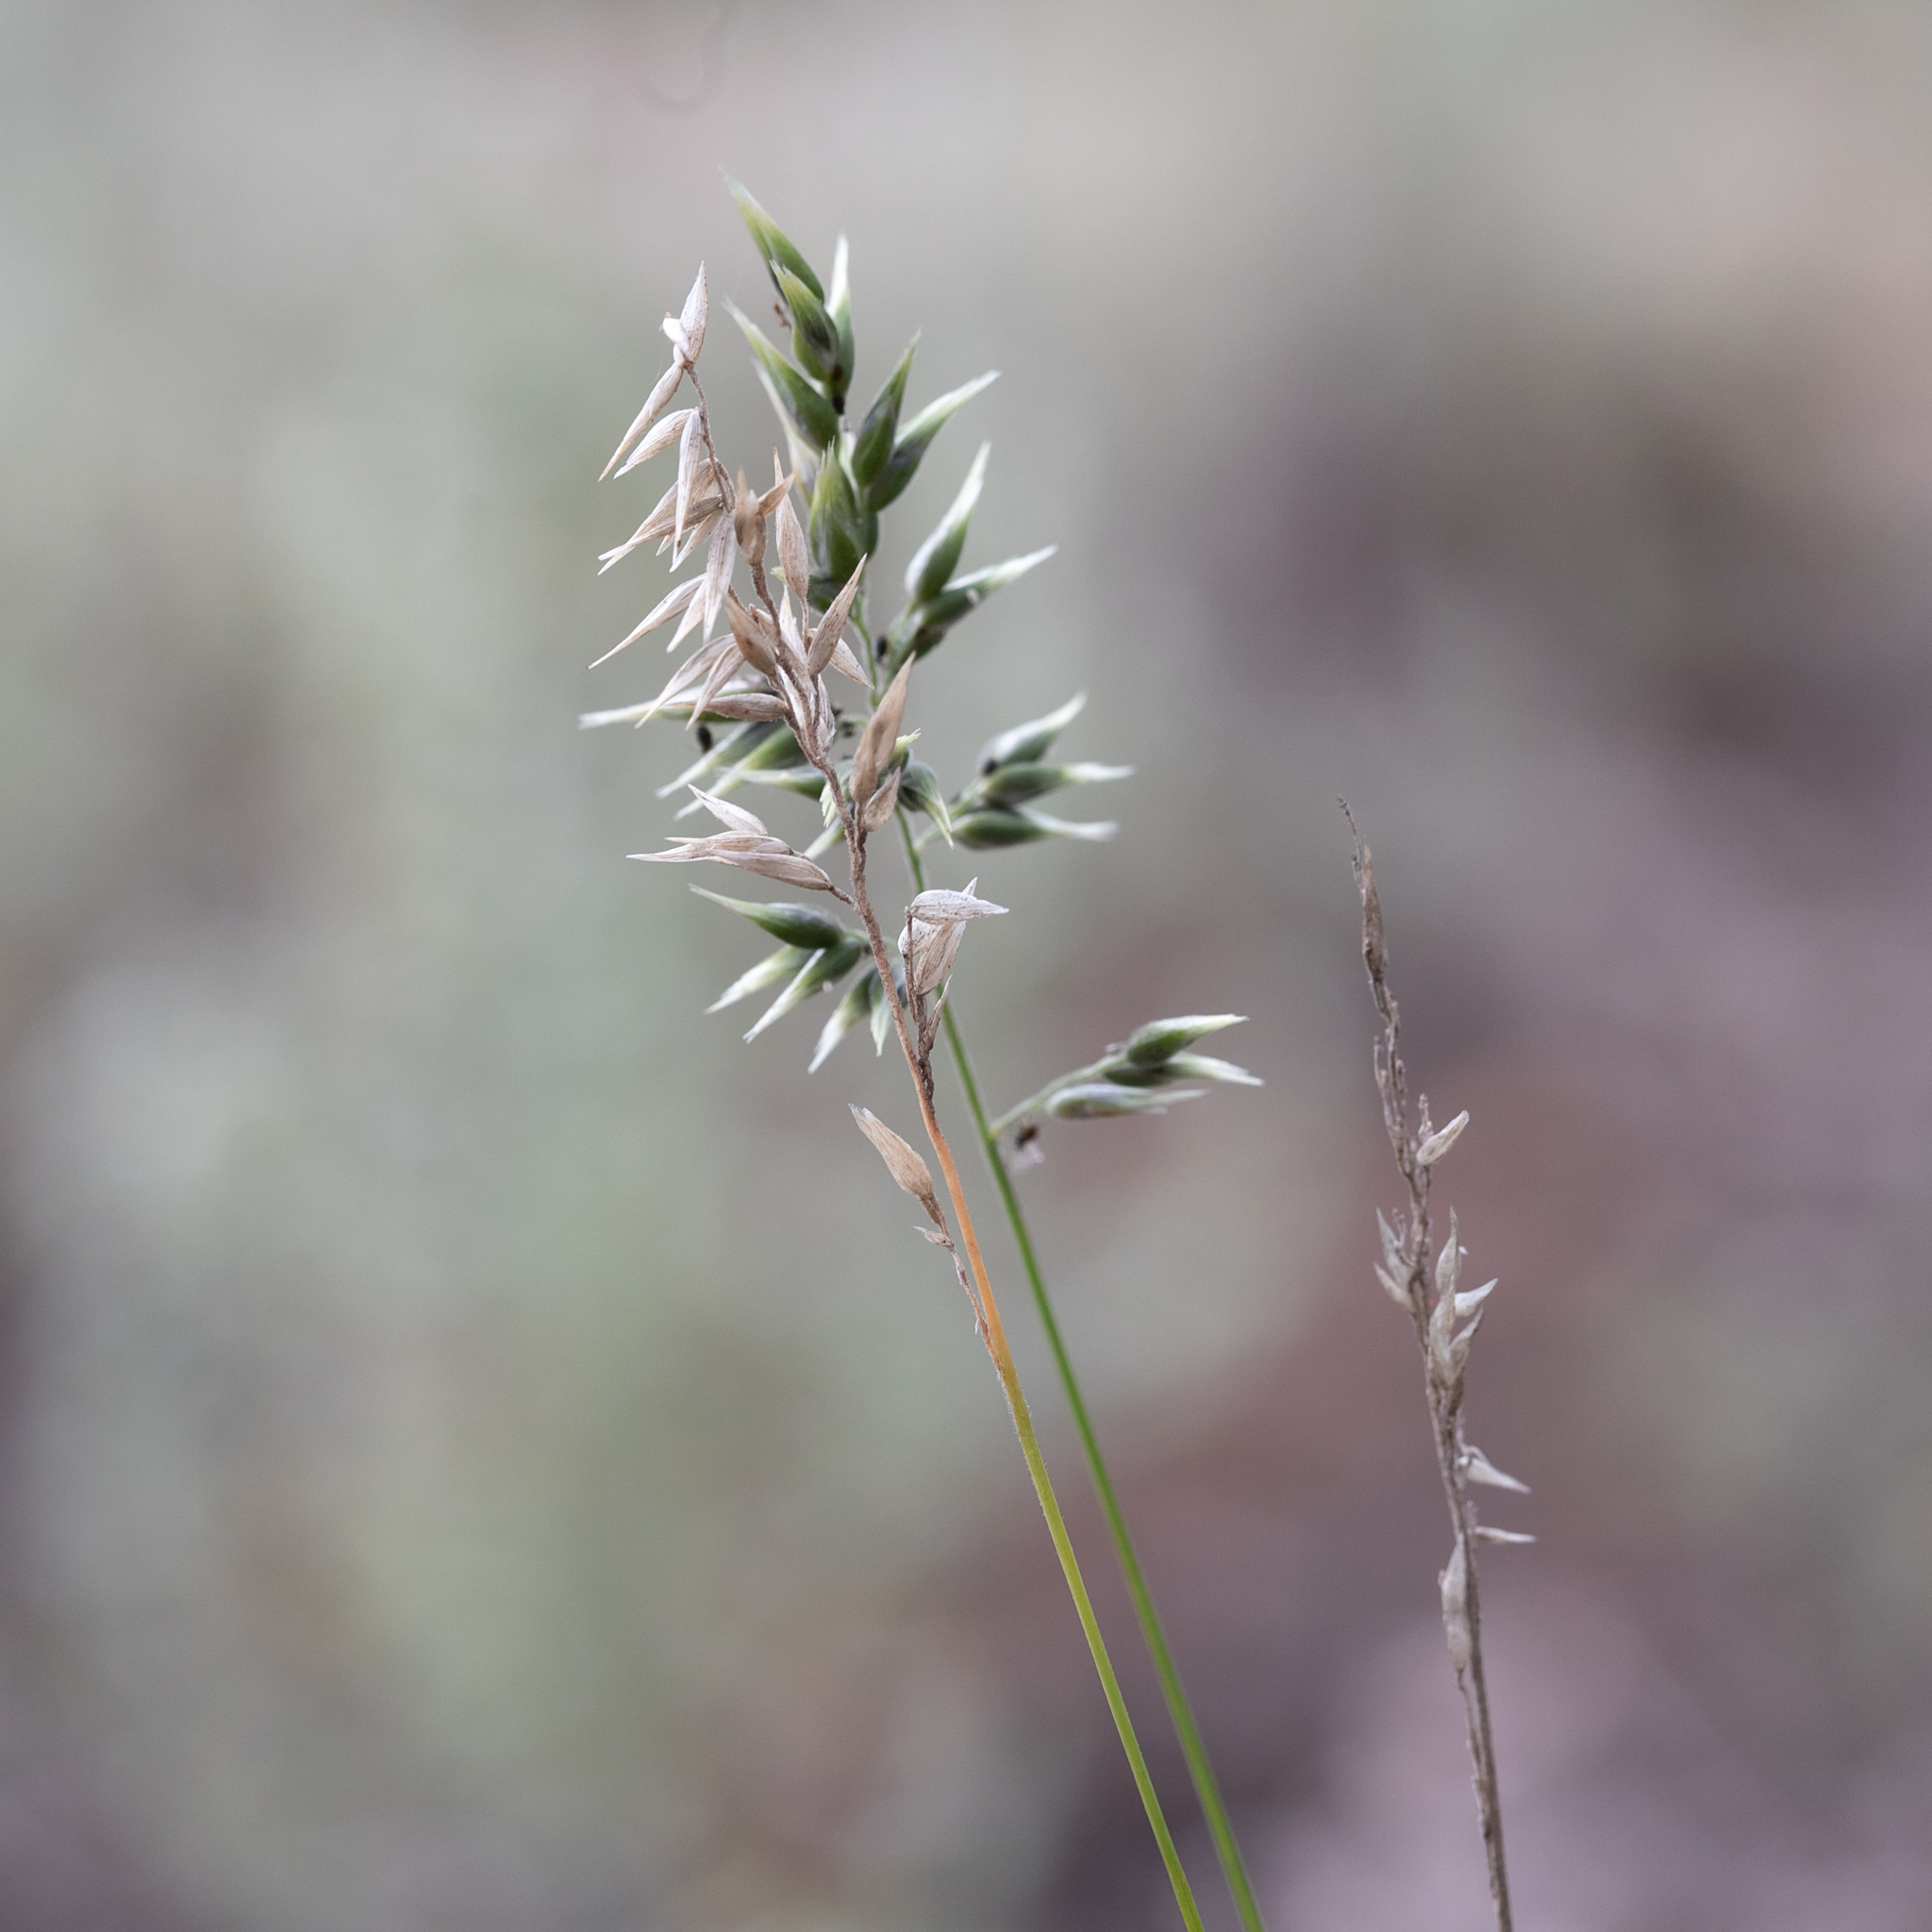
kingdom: Plantae
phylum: Tracheophyta
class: Liliopsida
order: Poales
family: Poaceae
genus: Enneapogon
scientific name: Enneapogon gracilis
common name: Slender bottle-washers
